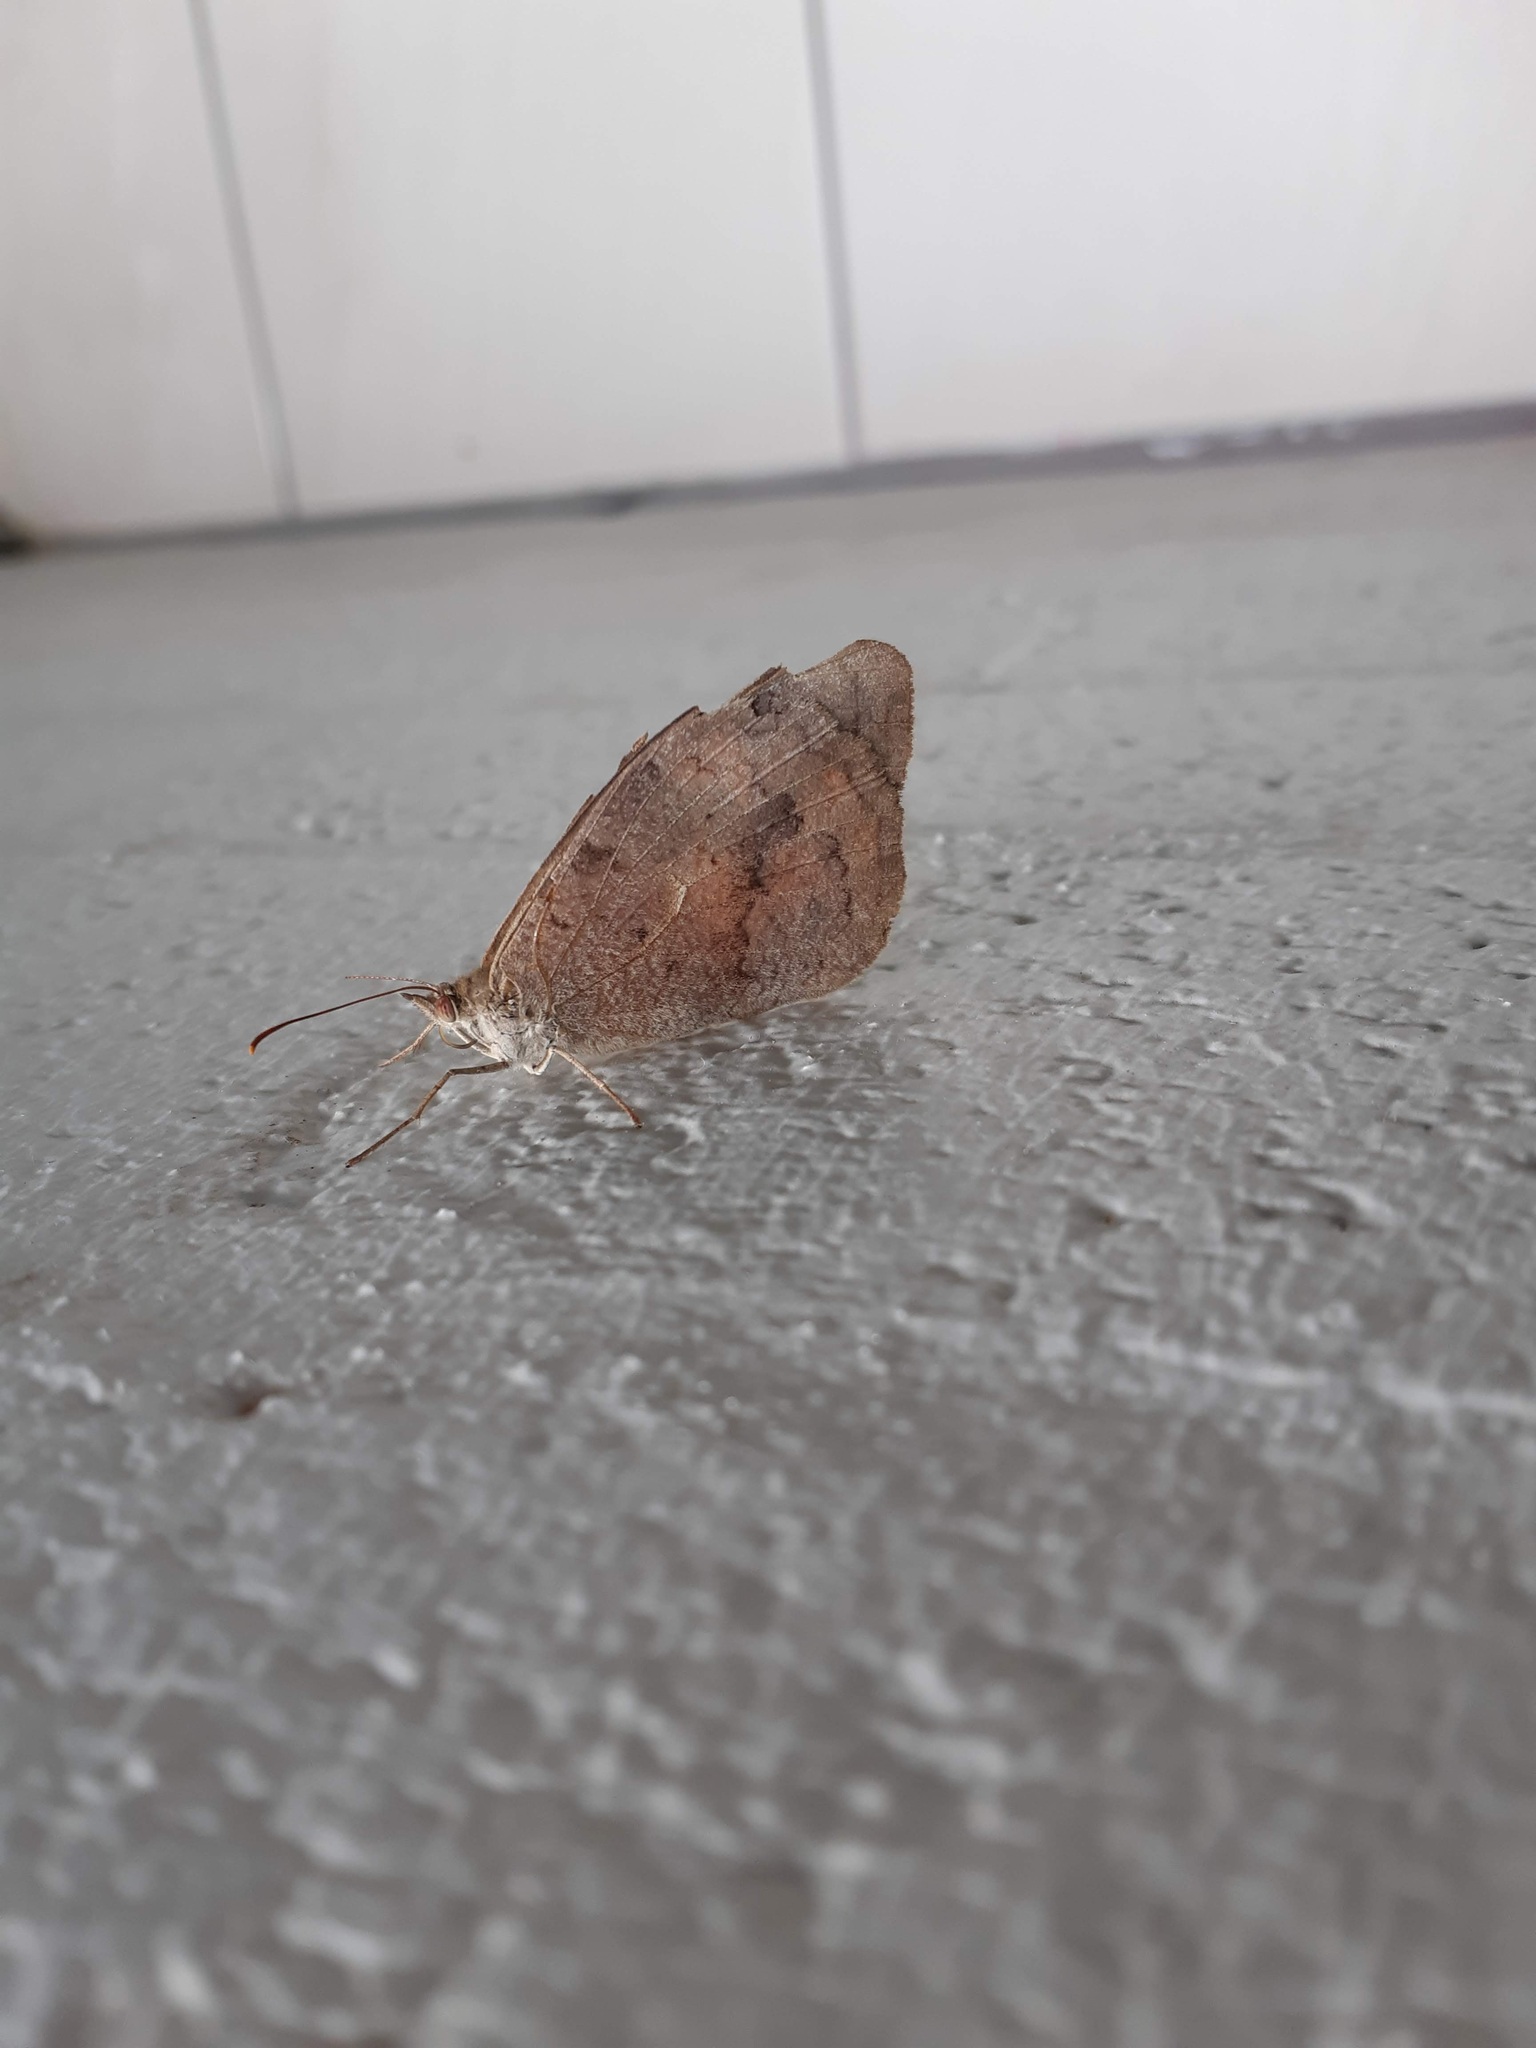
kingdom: Animalia
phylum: Arthropoda
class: Insecta
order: Lepidoptera
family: Nymphalidae
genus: Heteronympha
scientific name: Heteronympha merope
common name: Common brown
